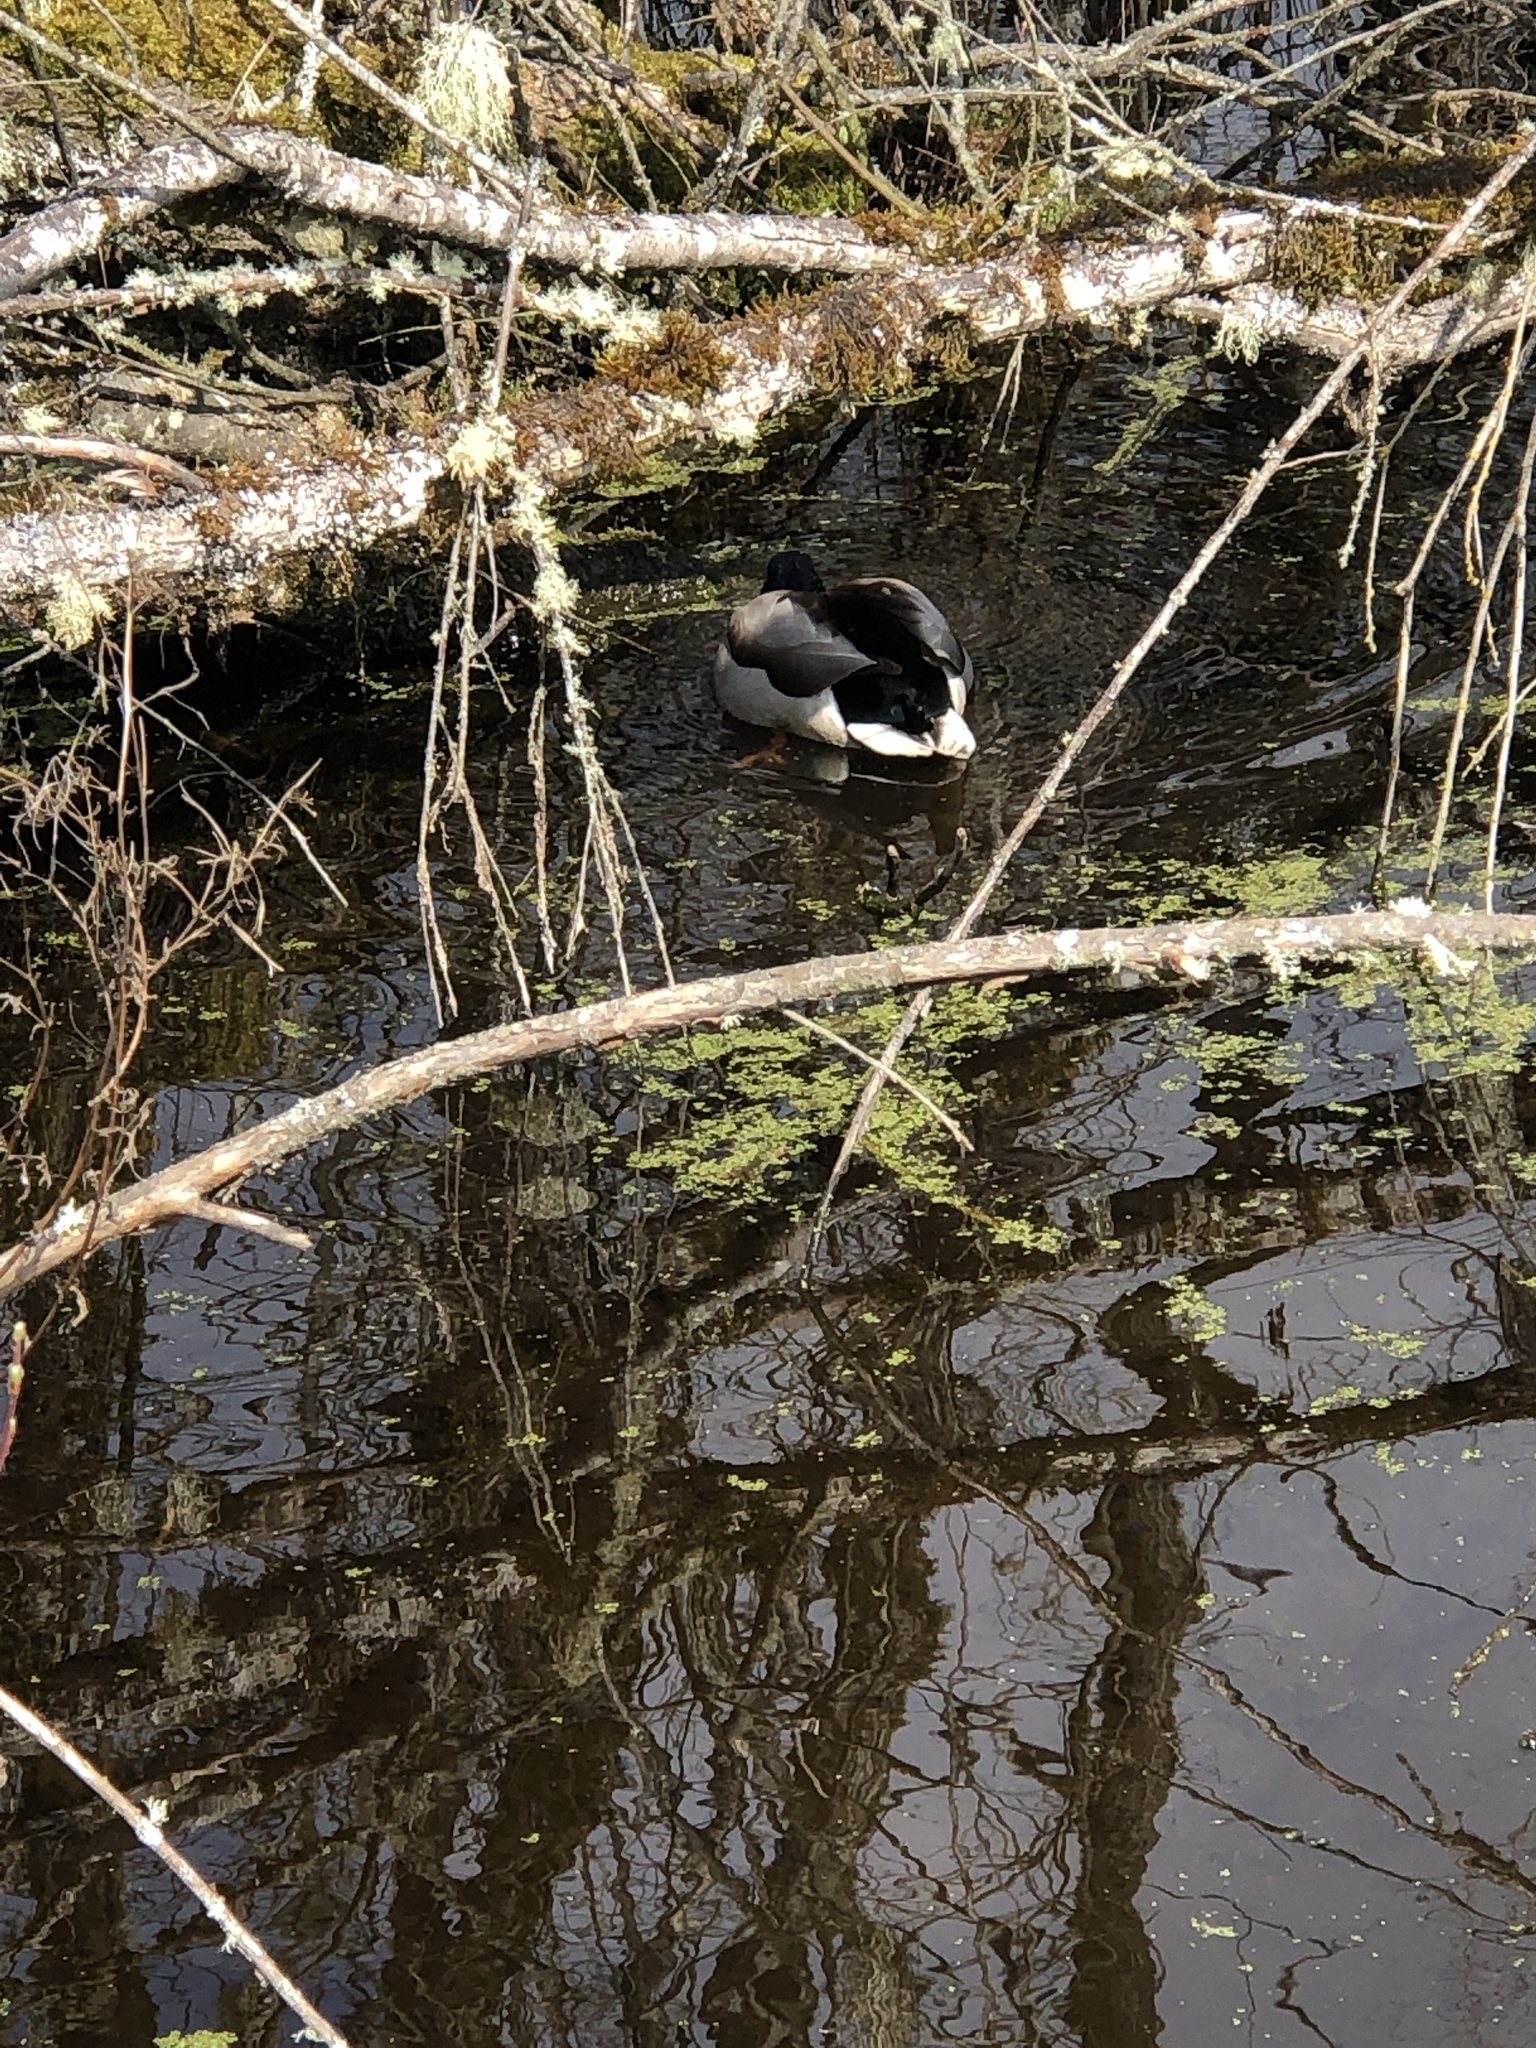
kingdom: Animalia
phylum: Chordata
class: Aves
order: Anseriformes
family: Anatidae
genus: Anas
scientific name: Anas platyrhynchos
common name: Mallard
